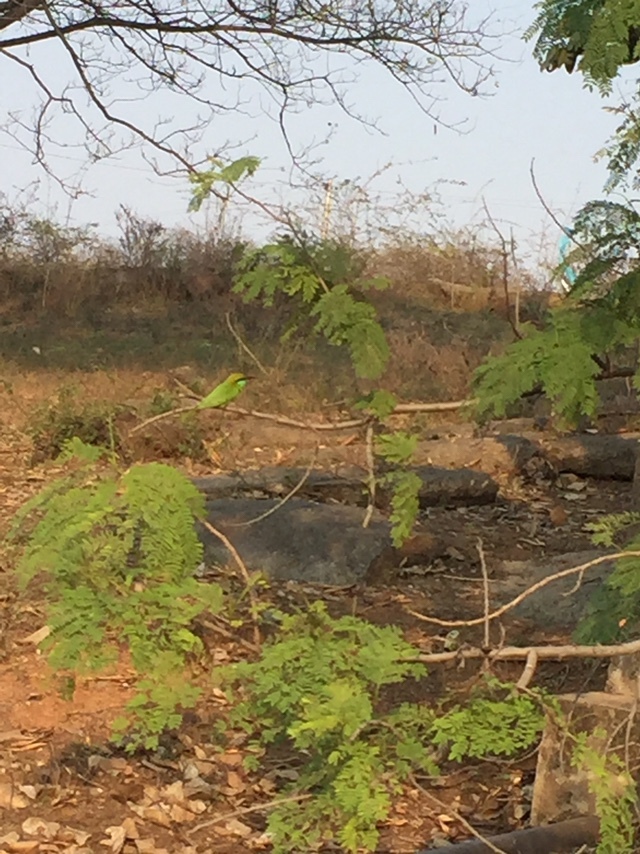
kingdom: Animalia
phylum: Chordata
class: Aves
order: Coraciiformes
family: Meropidae
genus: Merops
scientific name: Merops orientalis
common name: Green bee-eater
